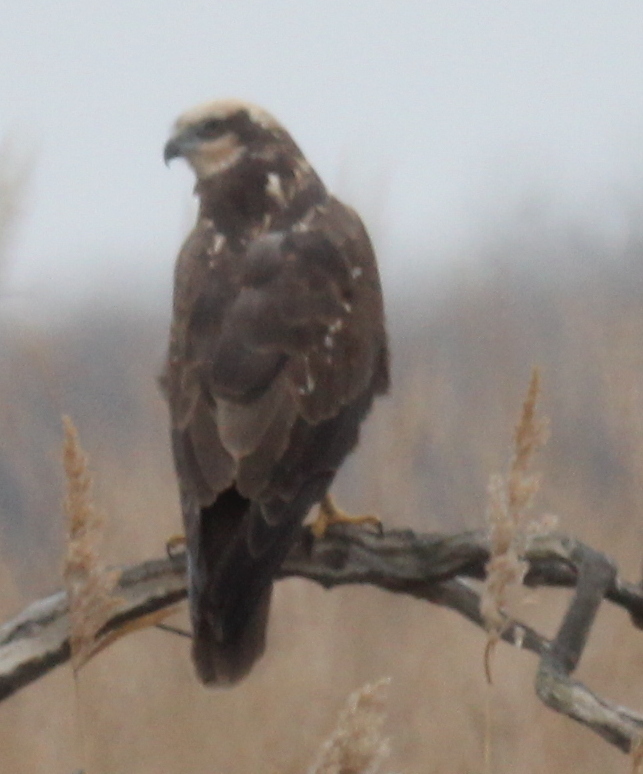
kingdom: Animalia
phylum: Chordata
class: Aves
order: Accipitriformes
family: Accipitridae
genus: Circus
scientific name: Circus aeruginosus
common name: Western marsh harrier
